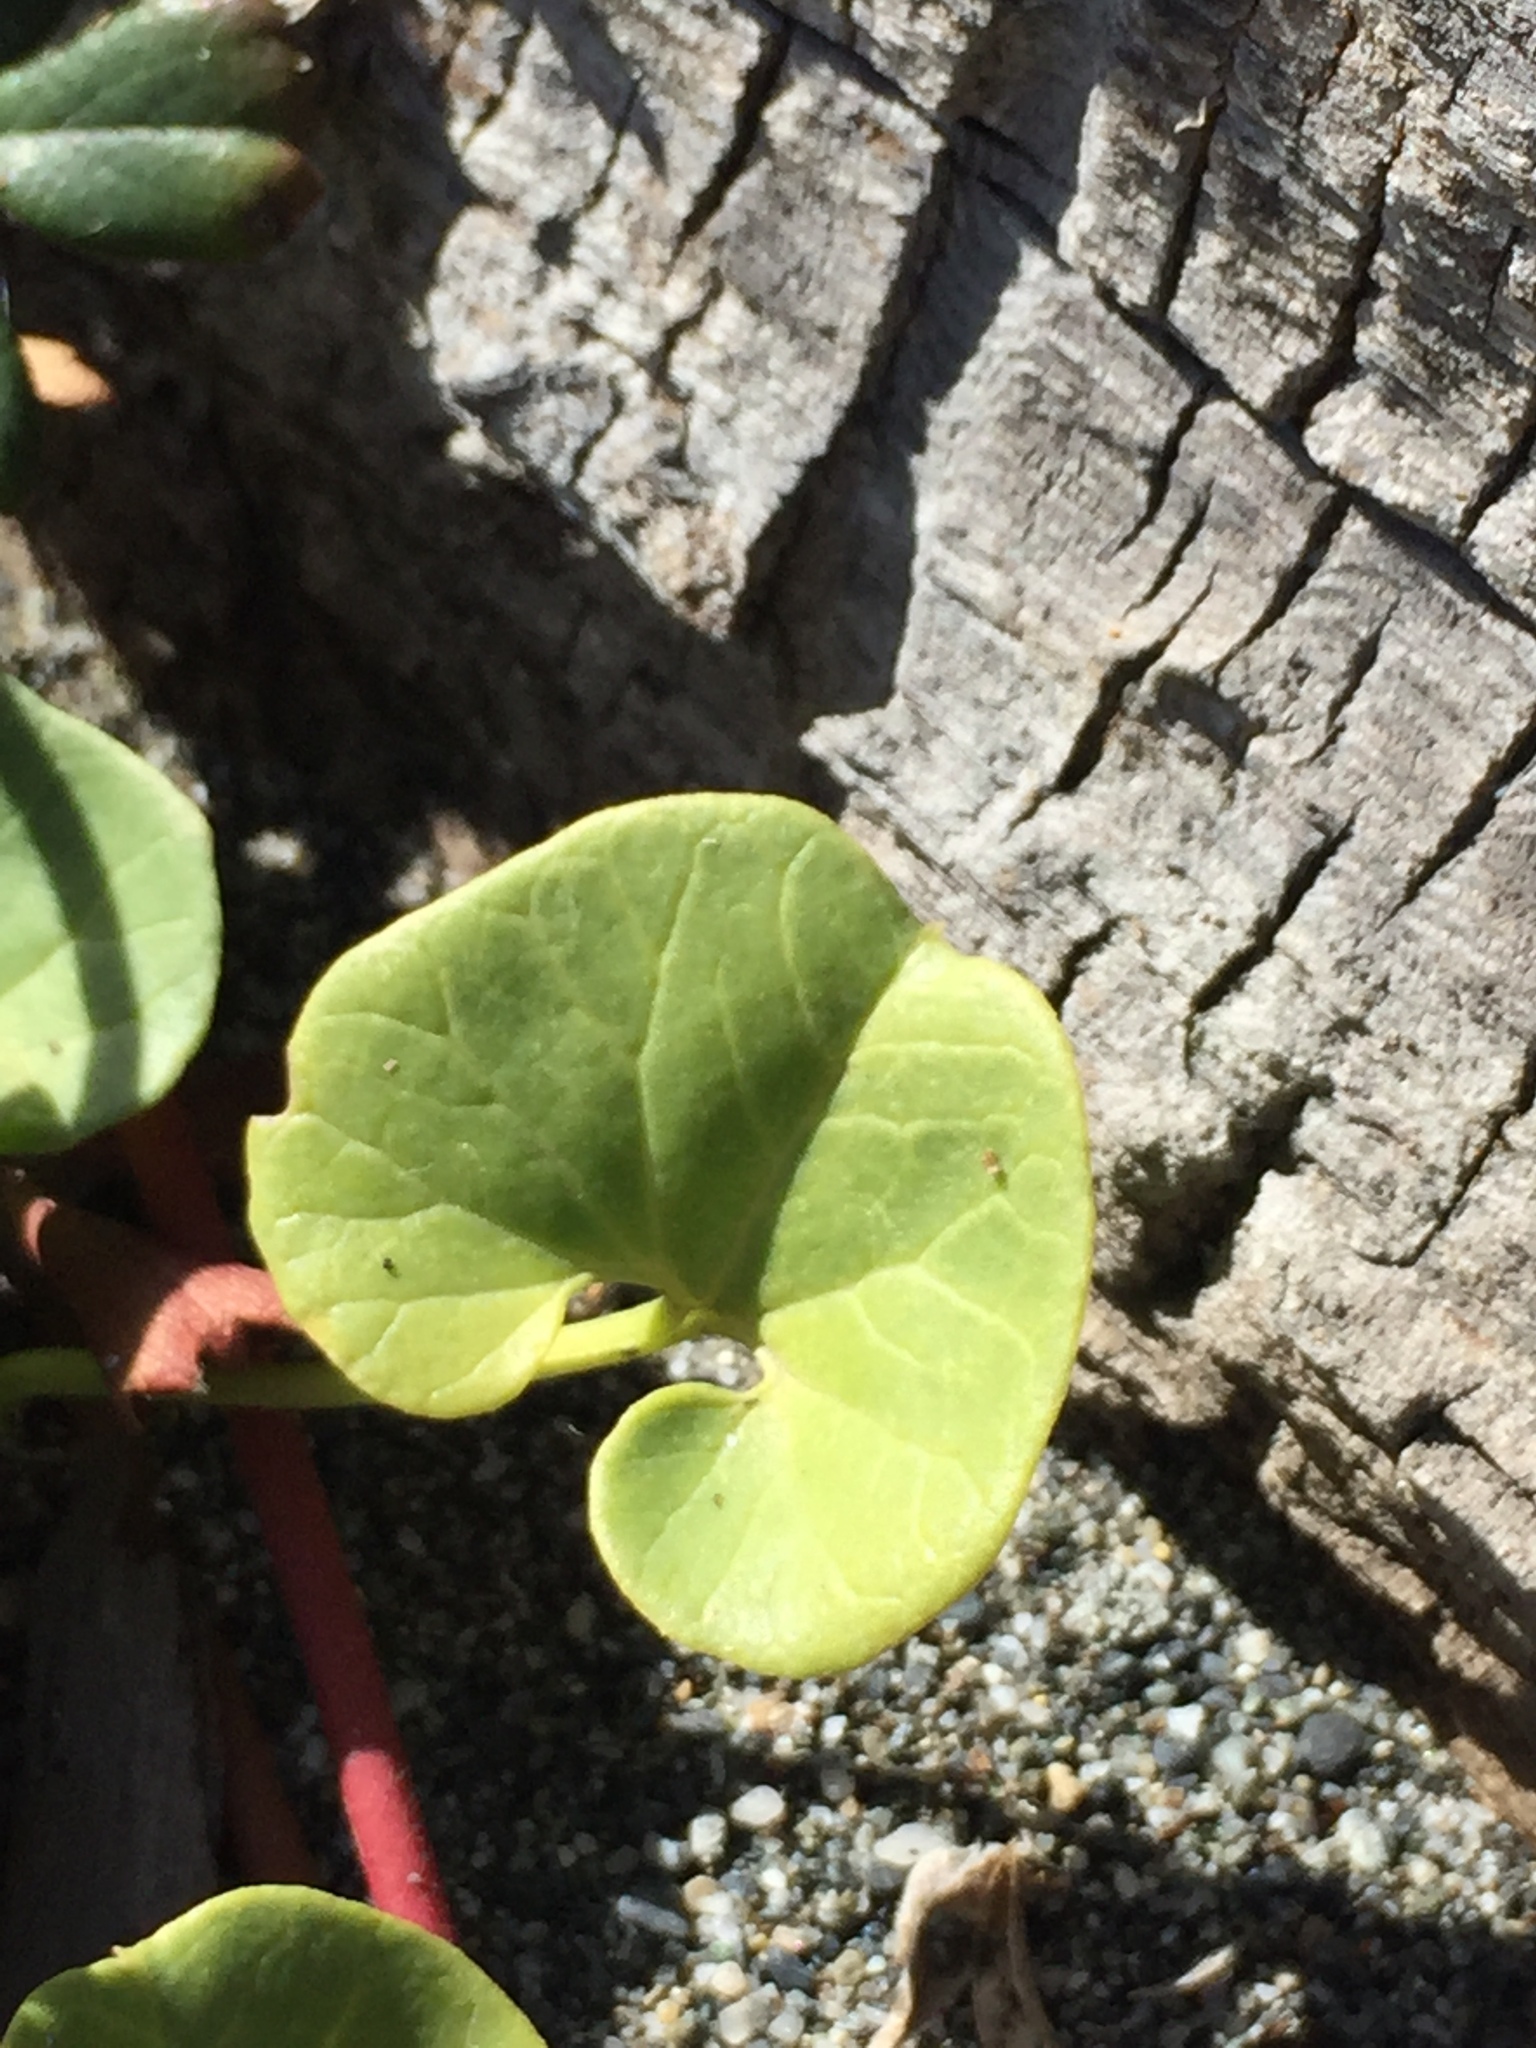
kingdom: Plantae
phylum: Tracheophyta
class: Magnoliopsida
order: Solanales
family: Convolvulaceae
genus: Calystegia
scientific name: Calystegia soldanella
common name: Sea bindweed
